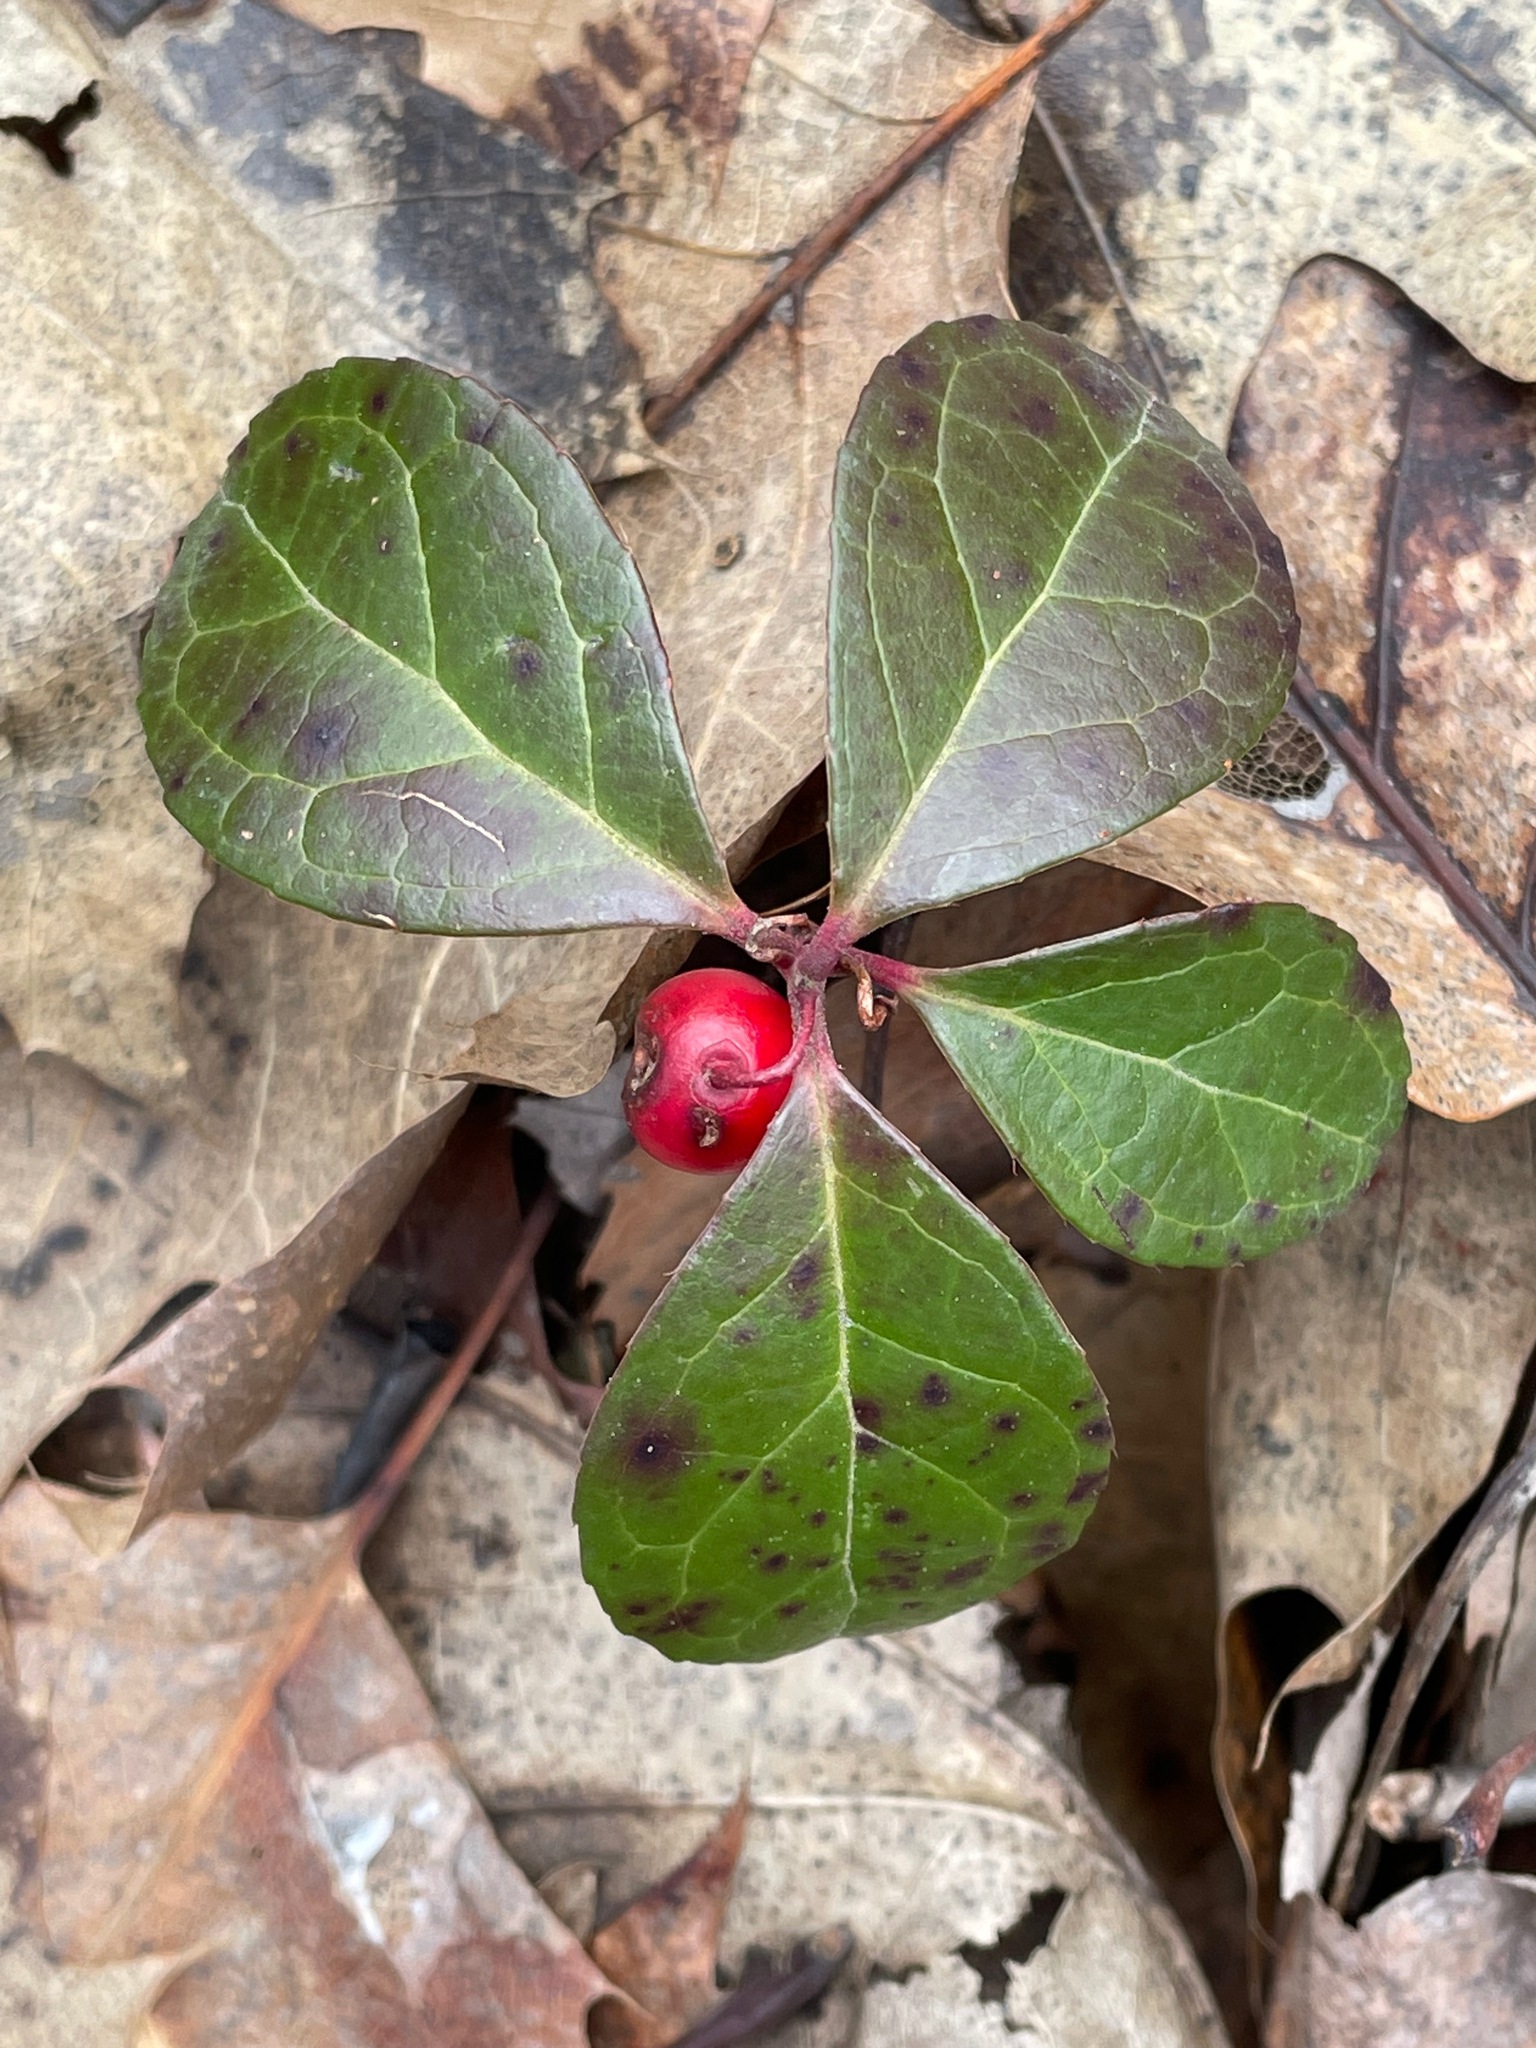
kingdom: Plantae
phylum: Tracheophyta
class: Magnoliopsida
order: Ericales
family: Ericaceae
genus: Gaultheria
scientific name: Gaultheria procumbens
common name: Checkerberry
